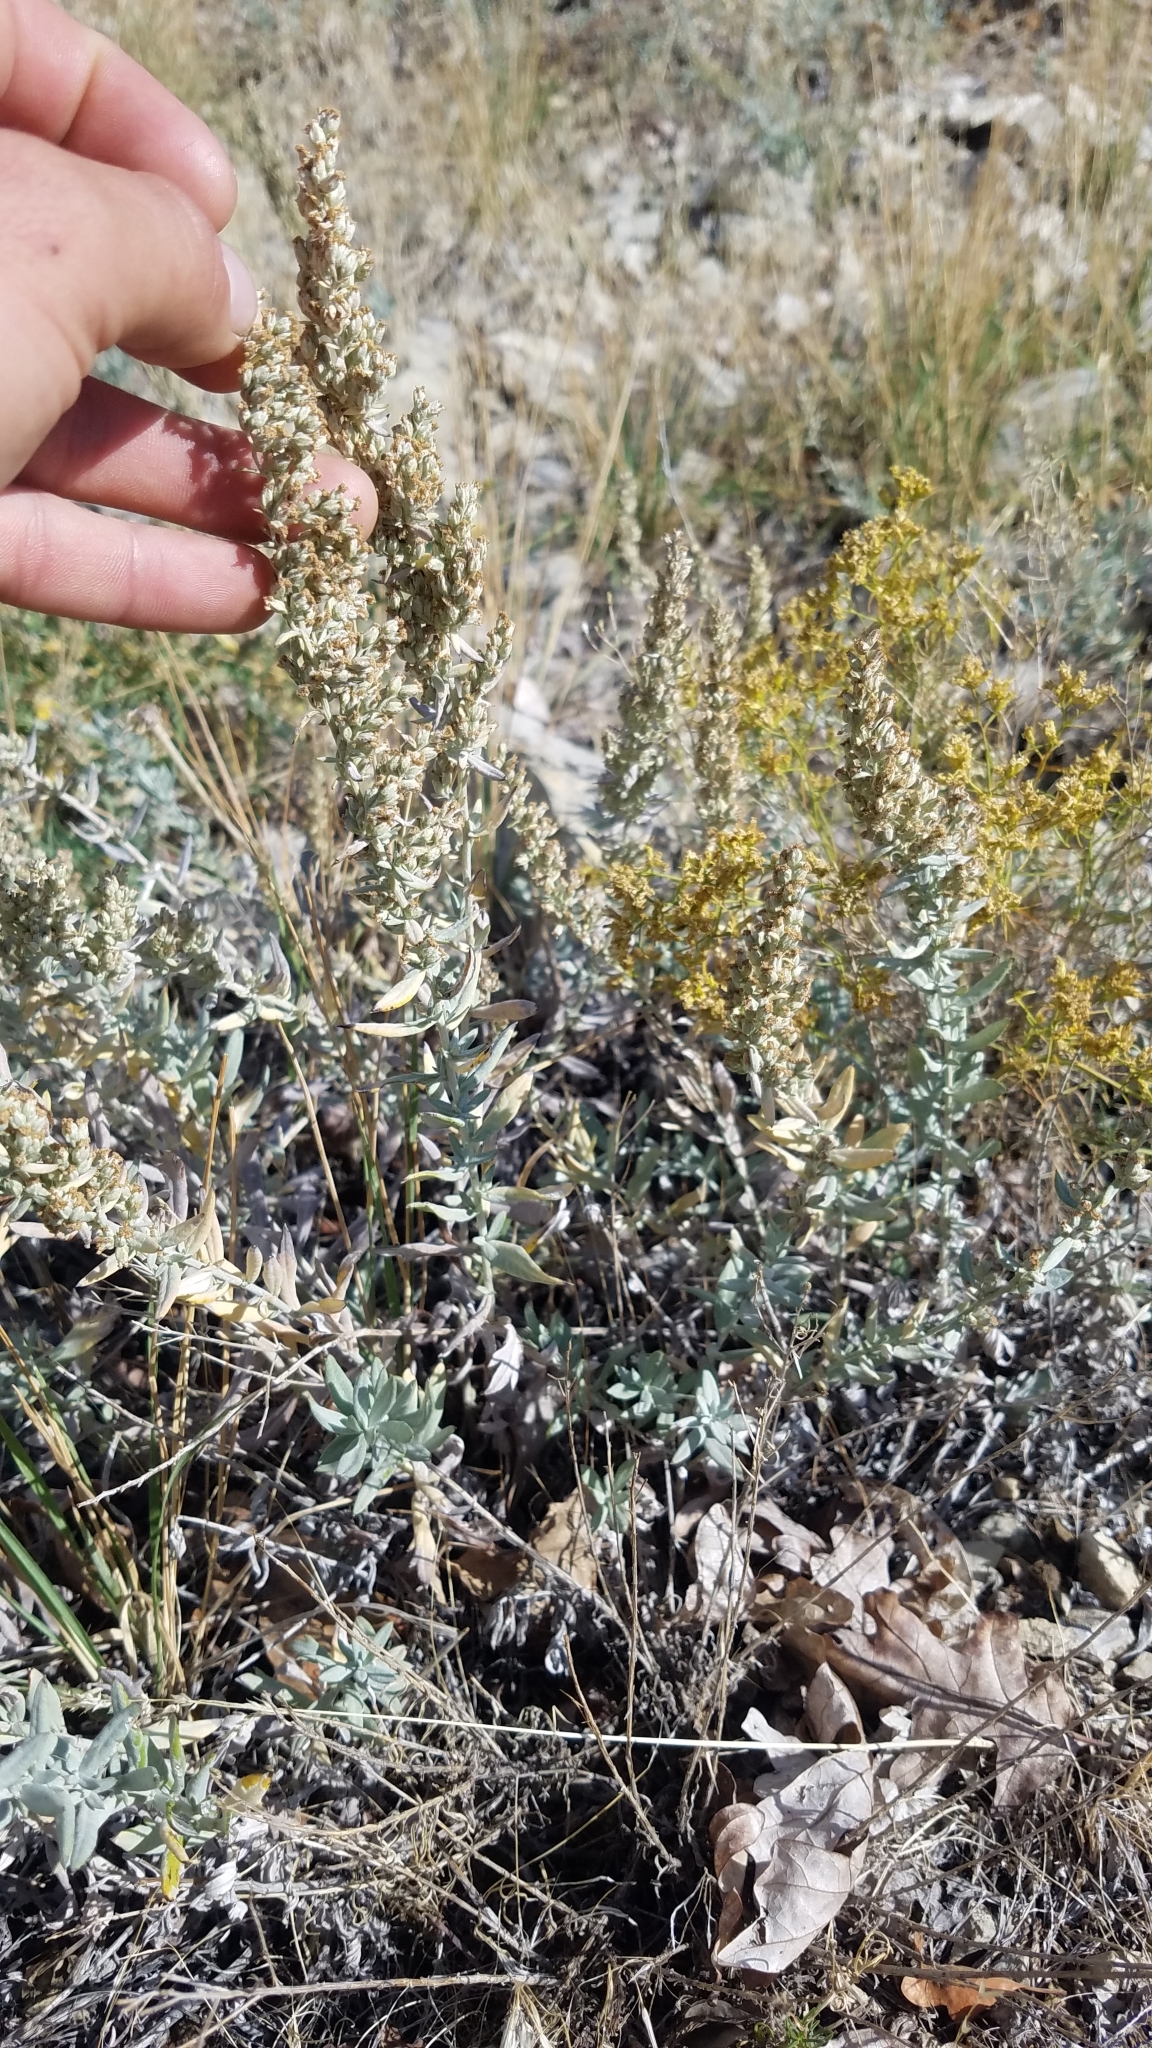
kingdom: Plantae
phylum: Tracheophyta
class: Magnoliopsida
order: Asterales
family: Asteraceae
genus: Artemisia
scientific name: Artemisia cana
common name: Silver sagebrush
